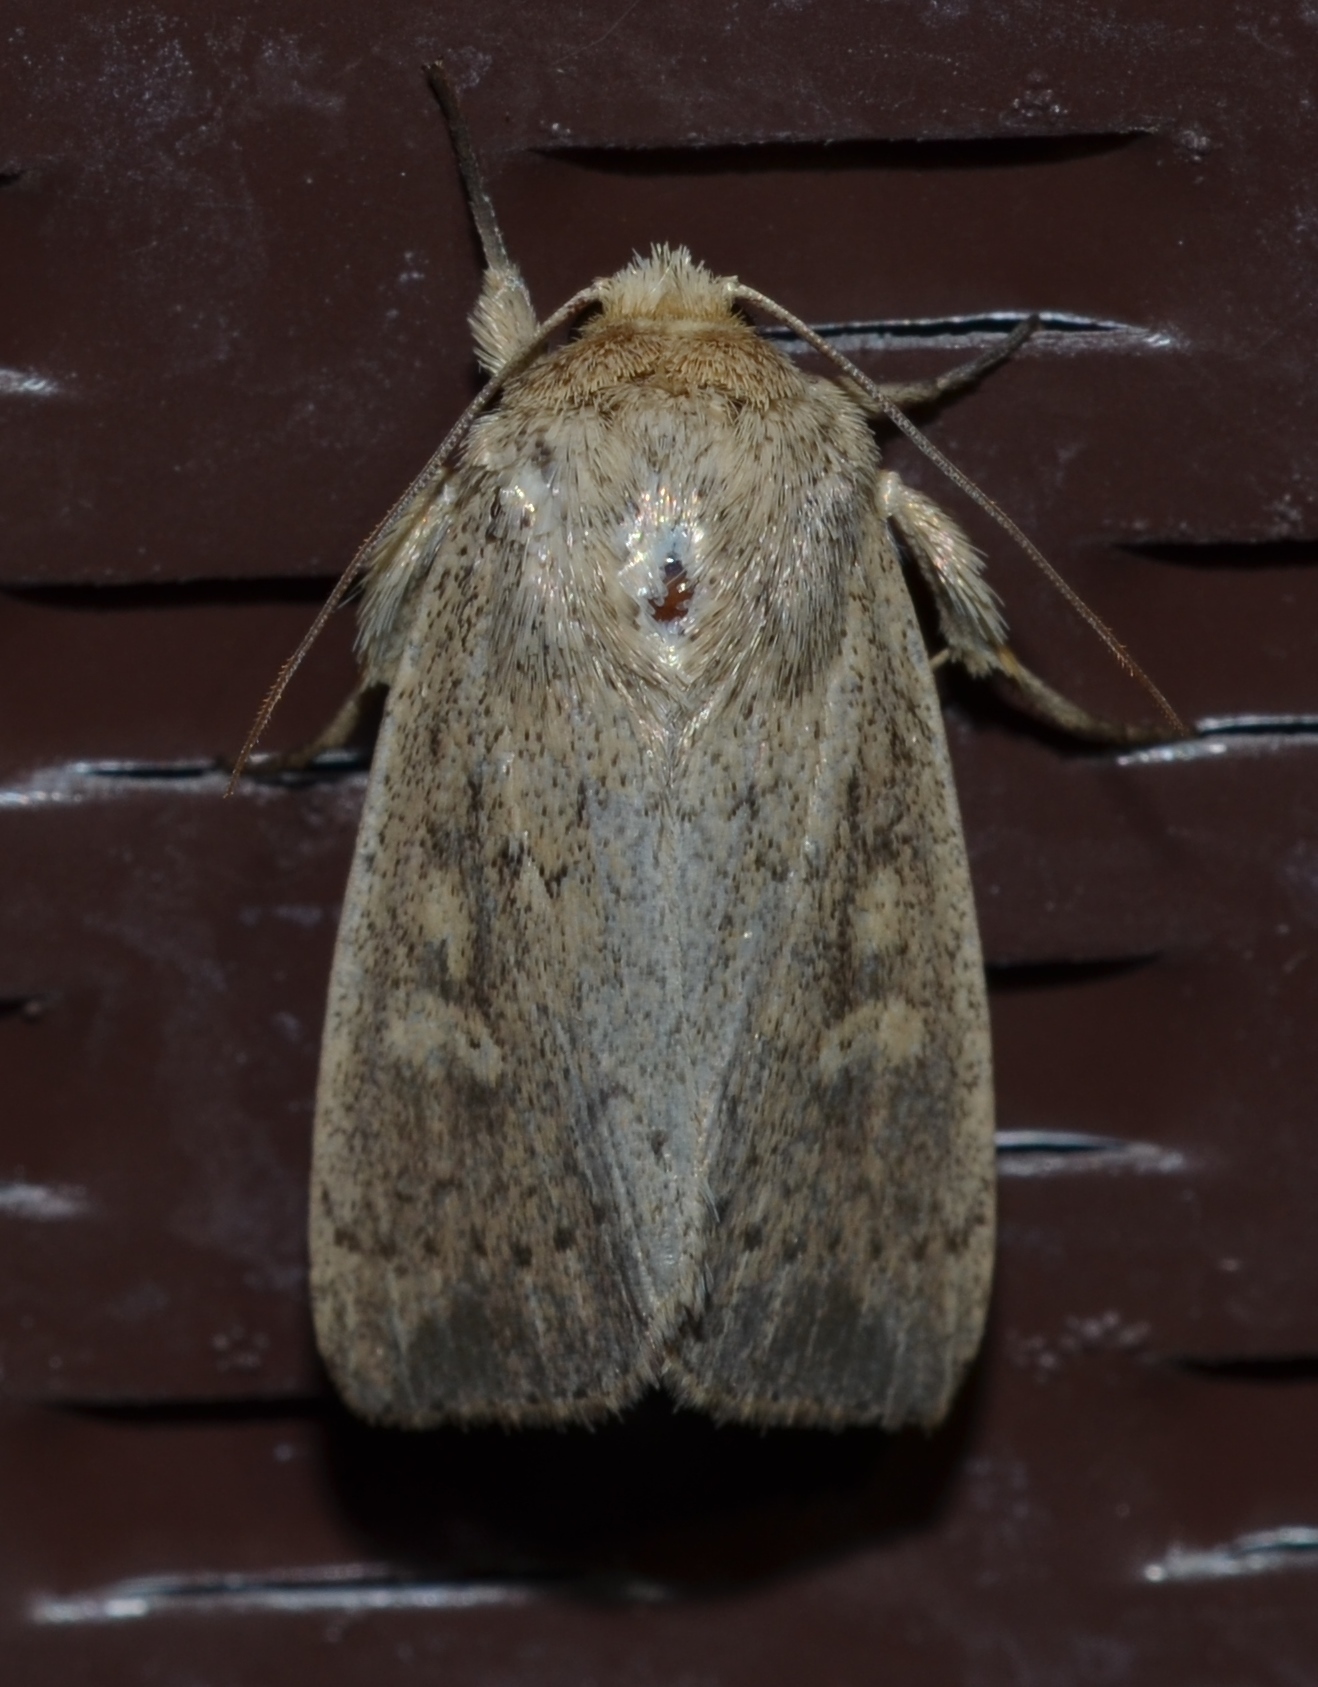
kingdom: Animalia
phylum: Arthropoda
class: Insecta
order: Lepidoptera
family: Noctuidae
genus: Leucania
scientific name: Leucania inermis
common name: Unarmed wainscot
